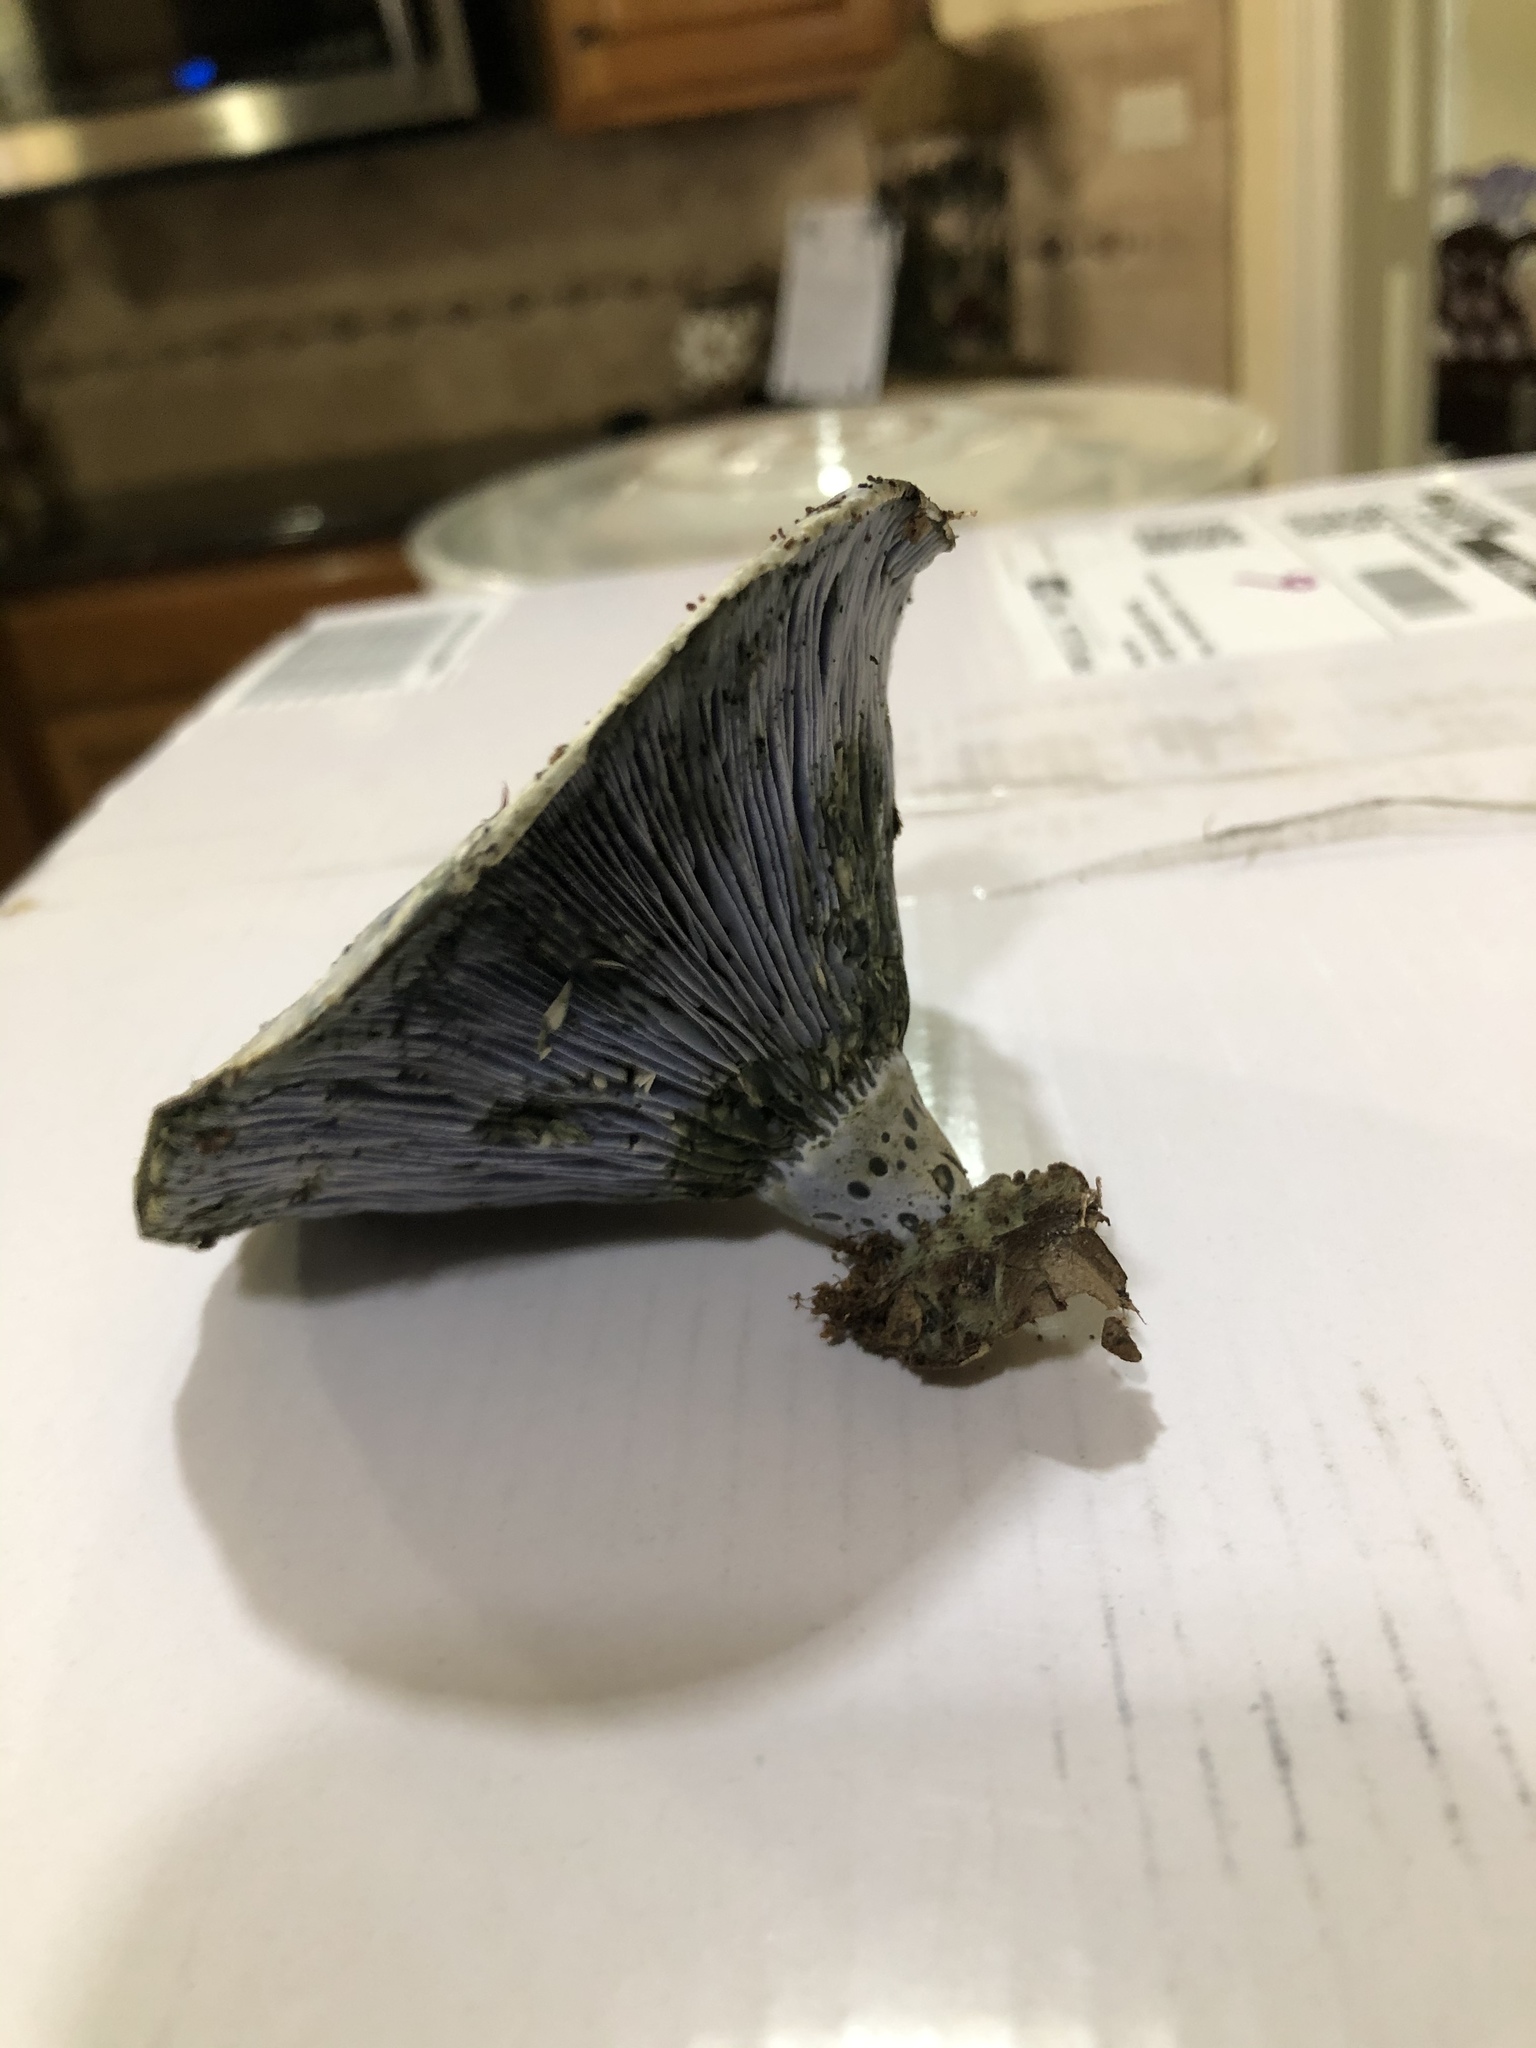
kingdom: Fungi
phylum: Basidiomycota
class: Agaricomycetes
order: Russulales
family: Russulaceae
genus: Lactarius
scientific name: Lactarius indigo
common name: Indigo milk cap
